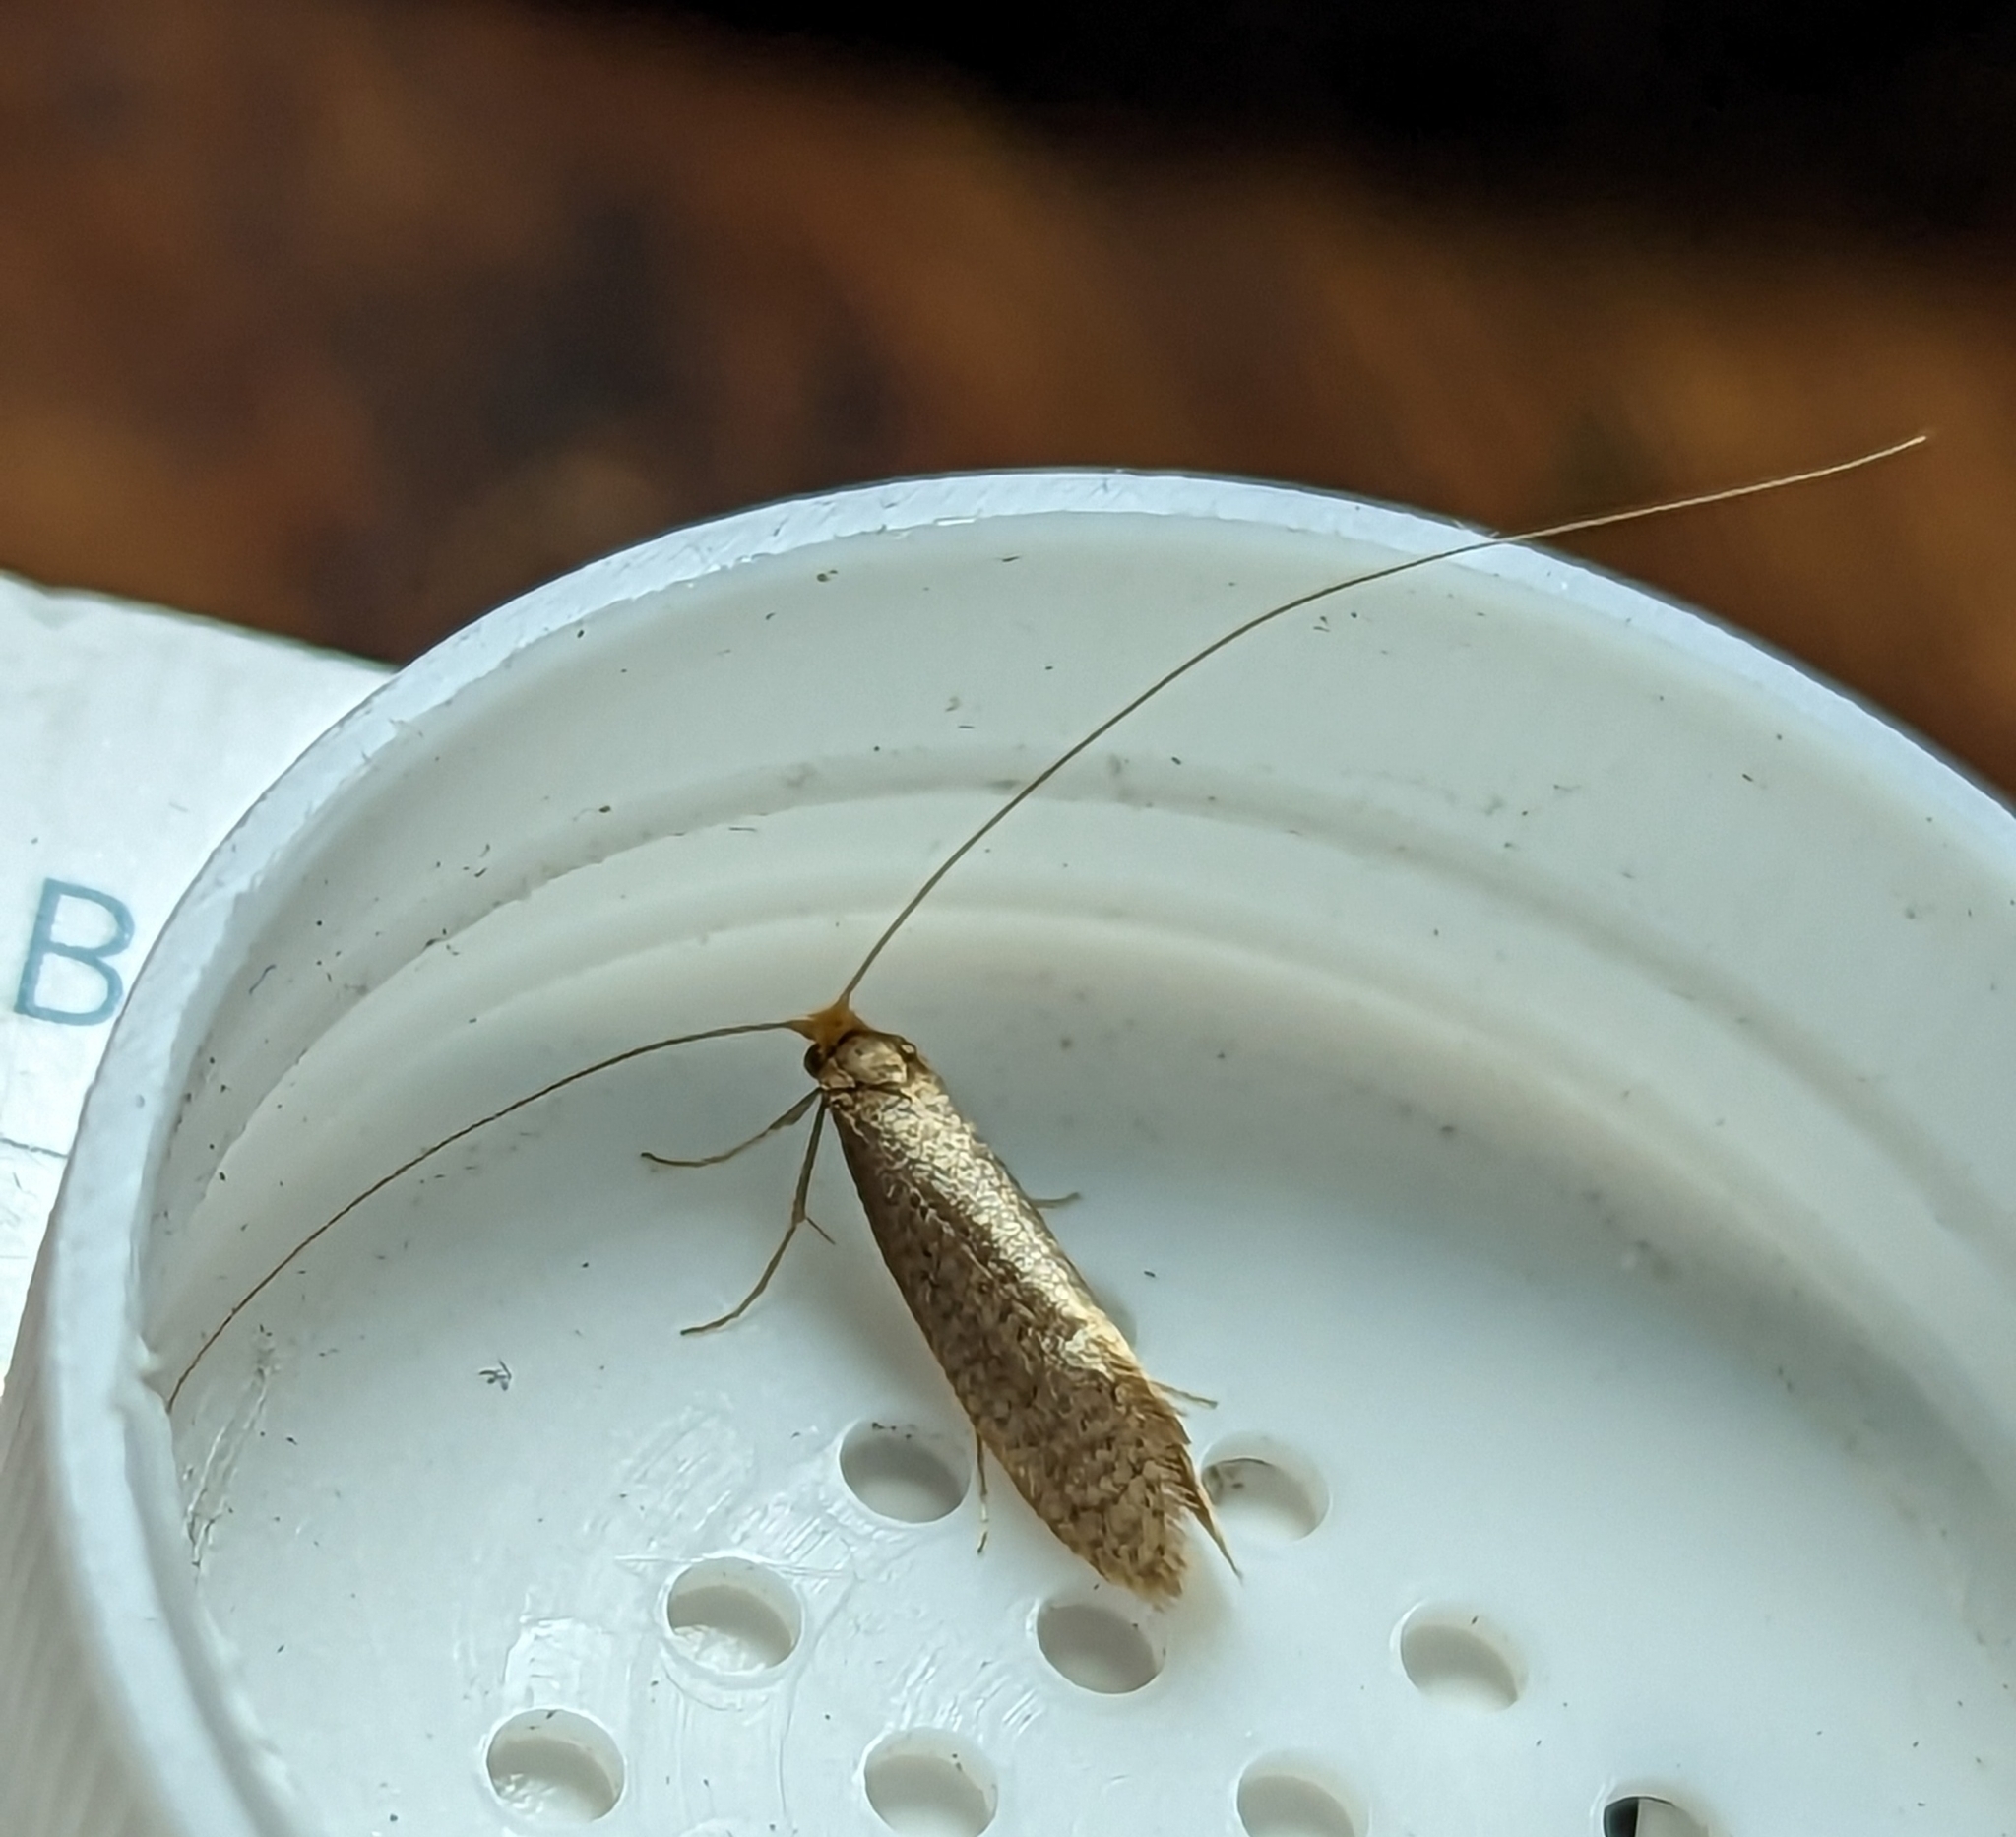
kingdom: Animalia
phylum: Arthropoda
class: Insecta
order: Lepidoptera
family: Adelidae
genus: Nematopogon
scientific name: Nematopogon swammerdamella
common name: Large long-horn
